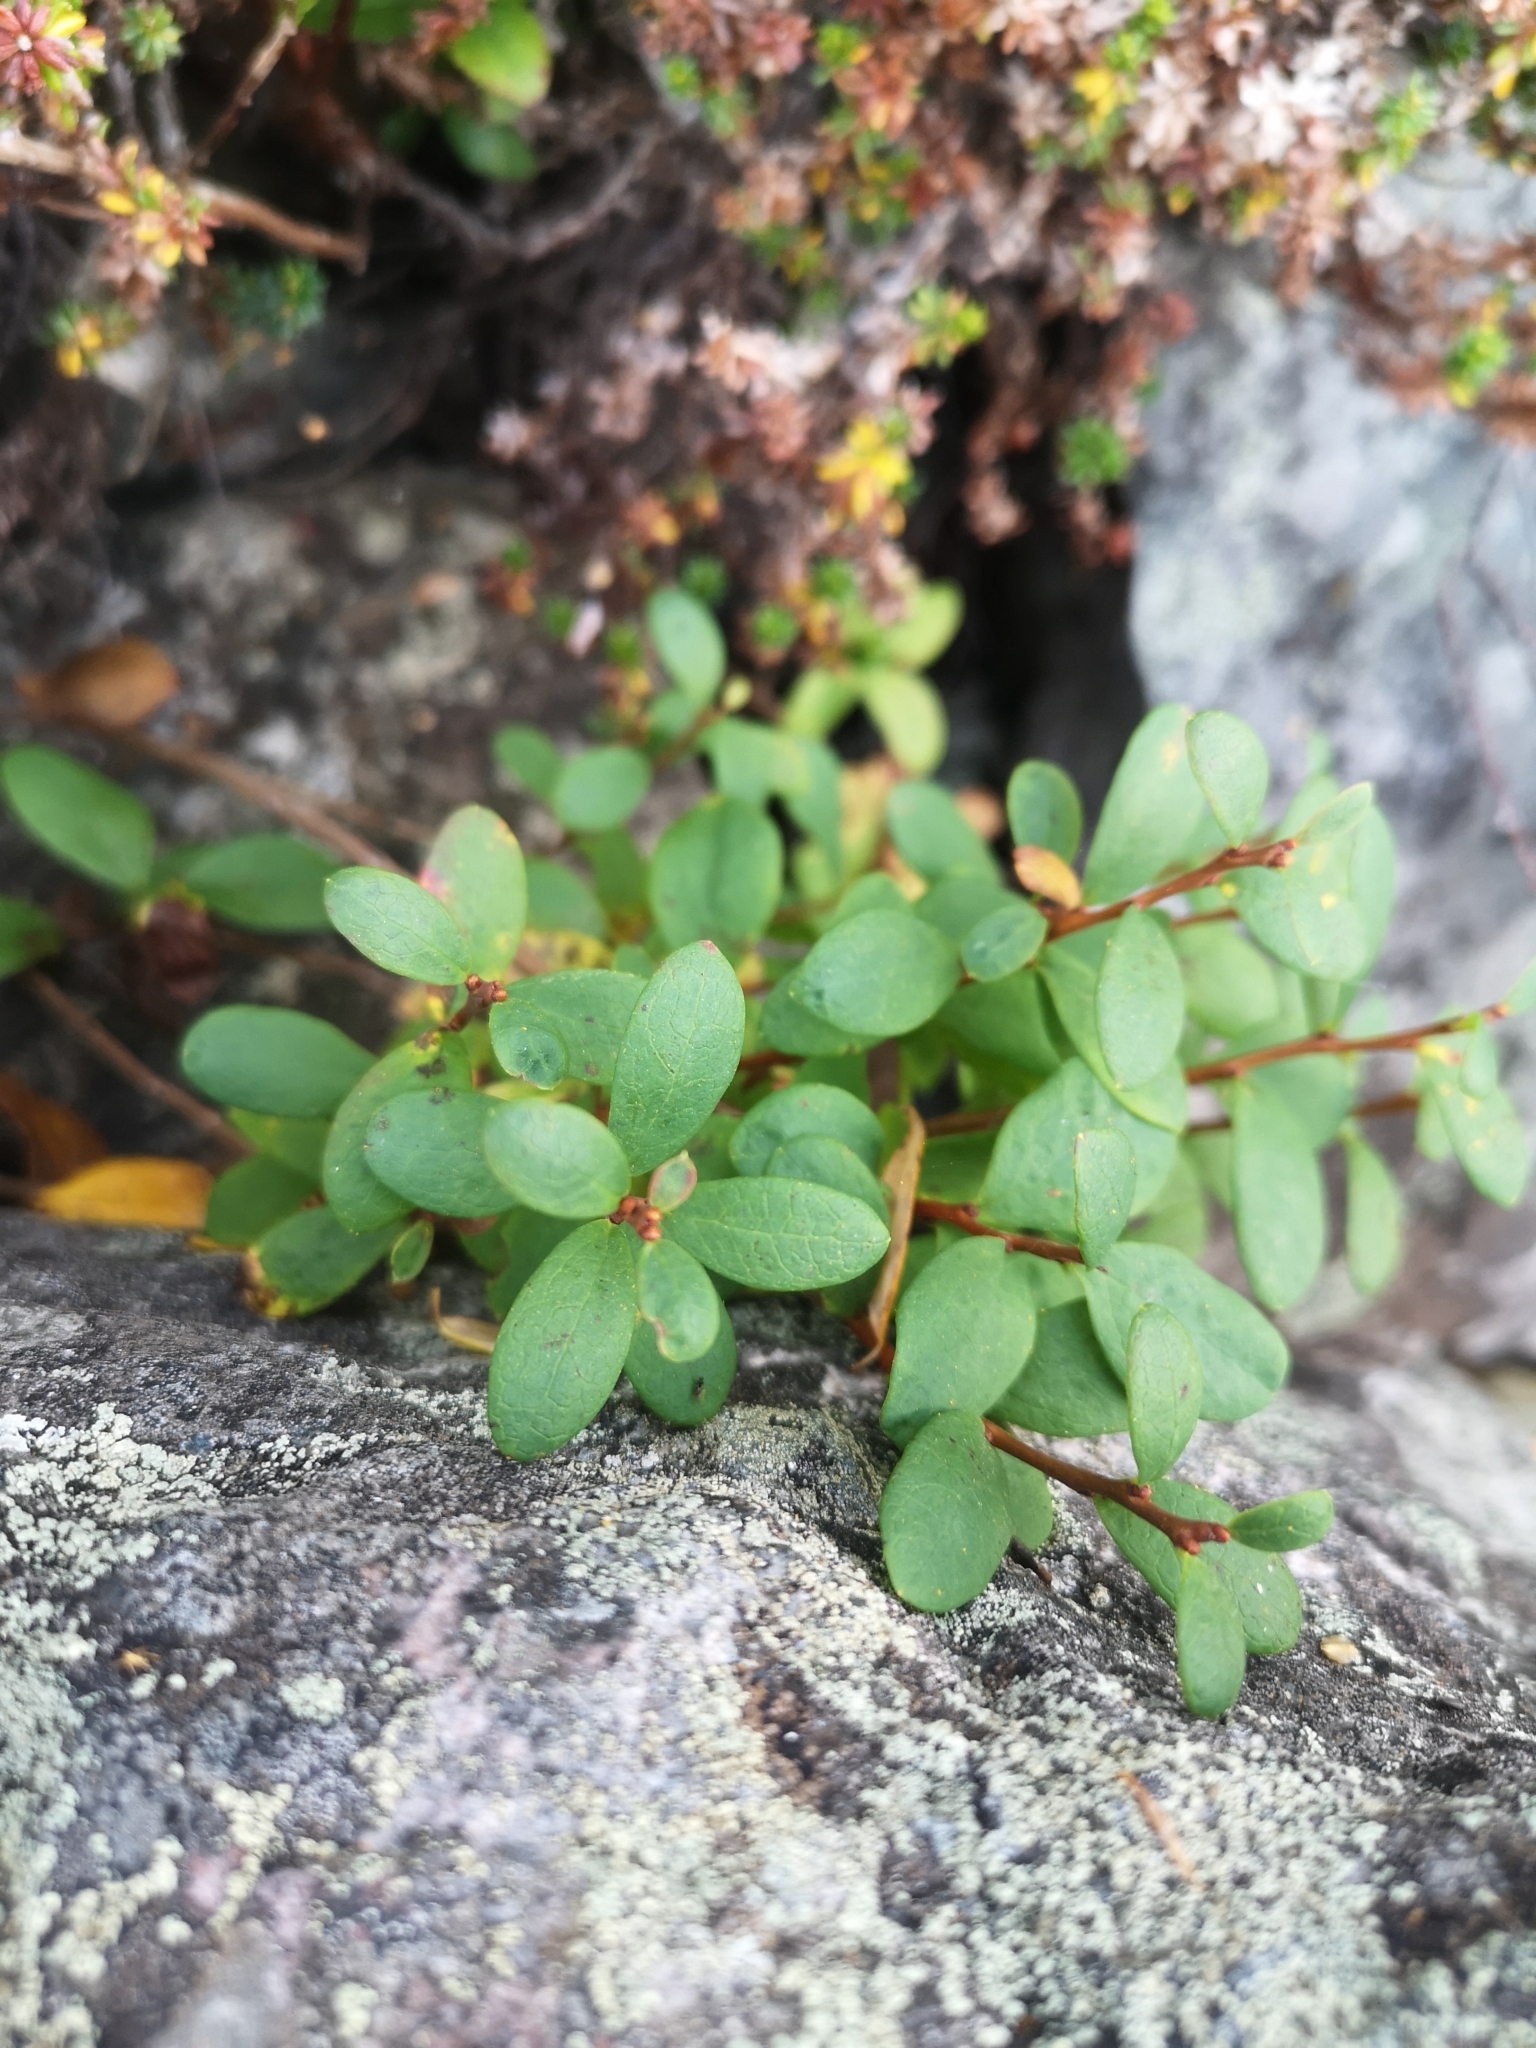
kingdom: Plantae
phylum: Tracheophyta
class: Magnoliopsida
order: Ericales
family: Ericaceae
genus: Vaccinium
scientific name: Vaccinium uliginosum
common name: Bog bilberry
